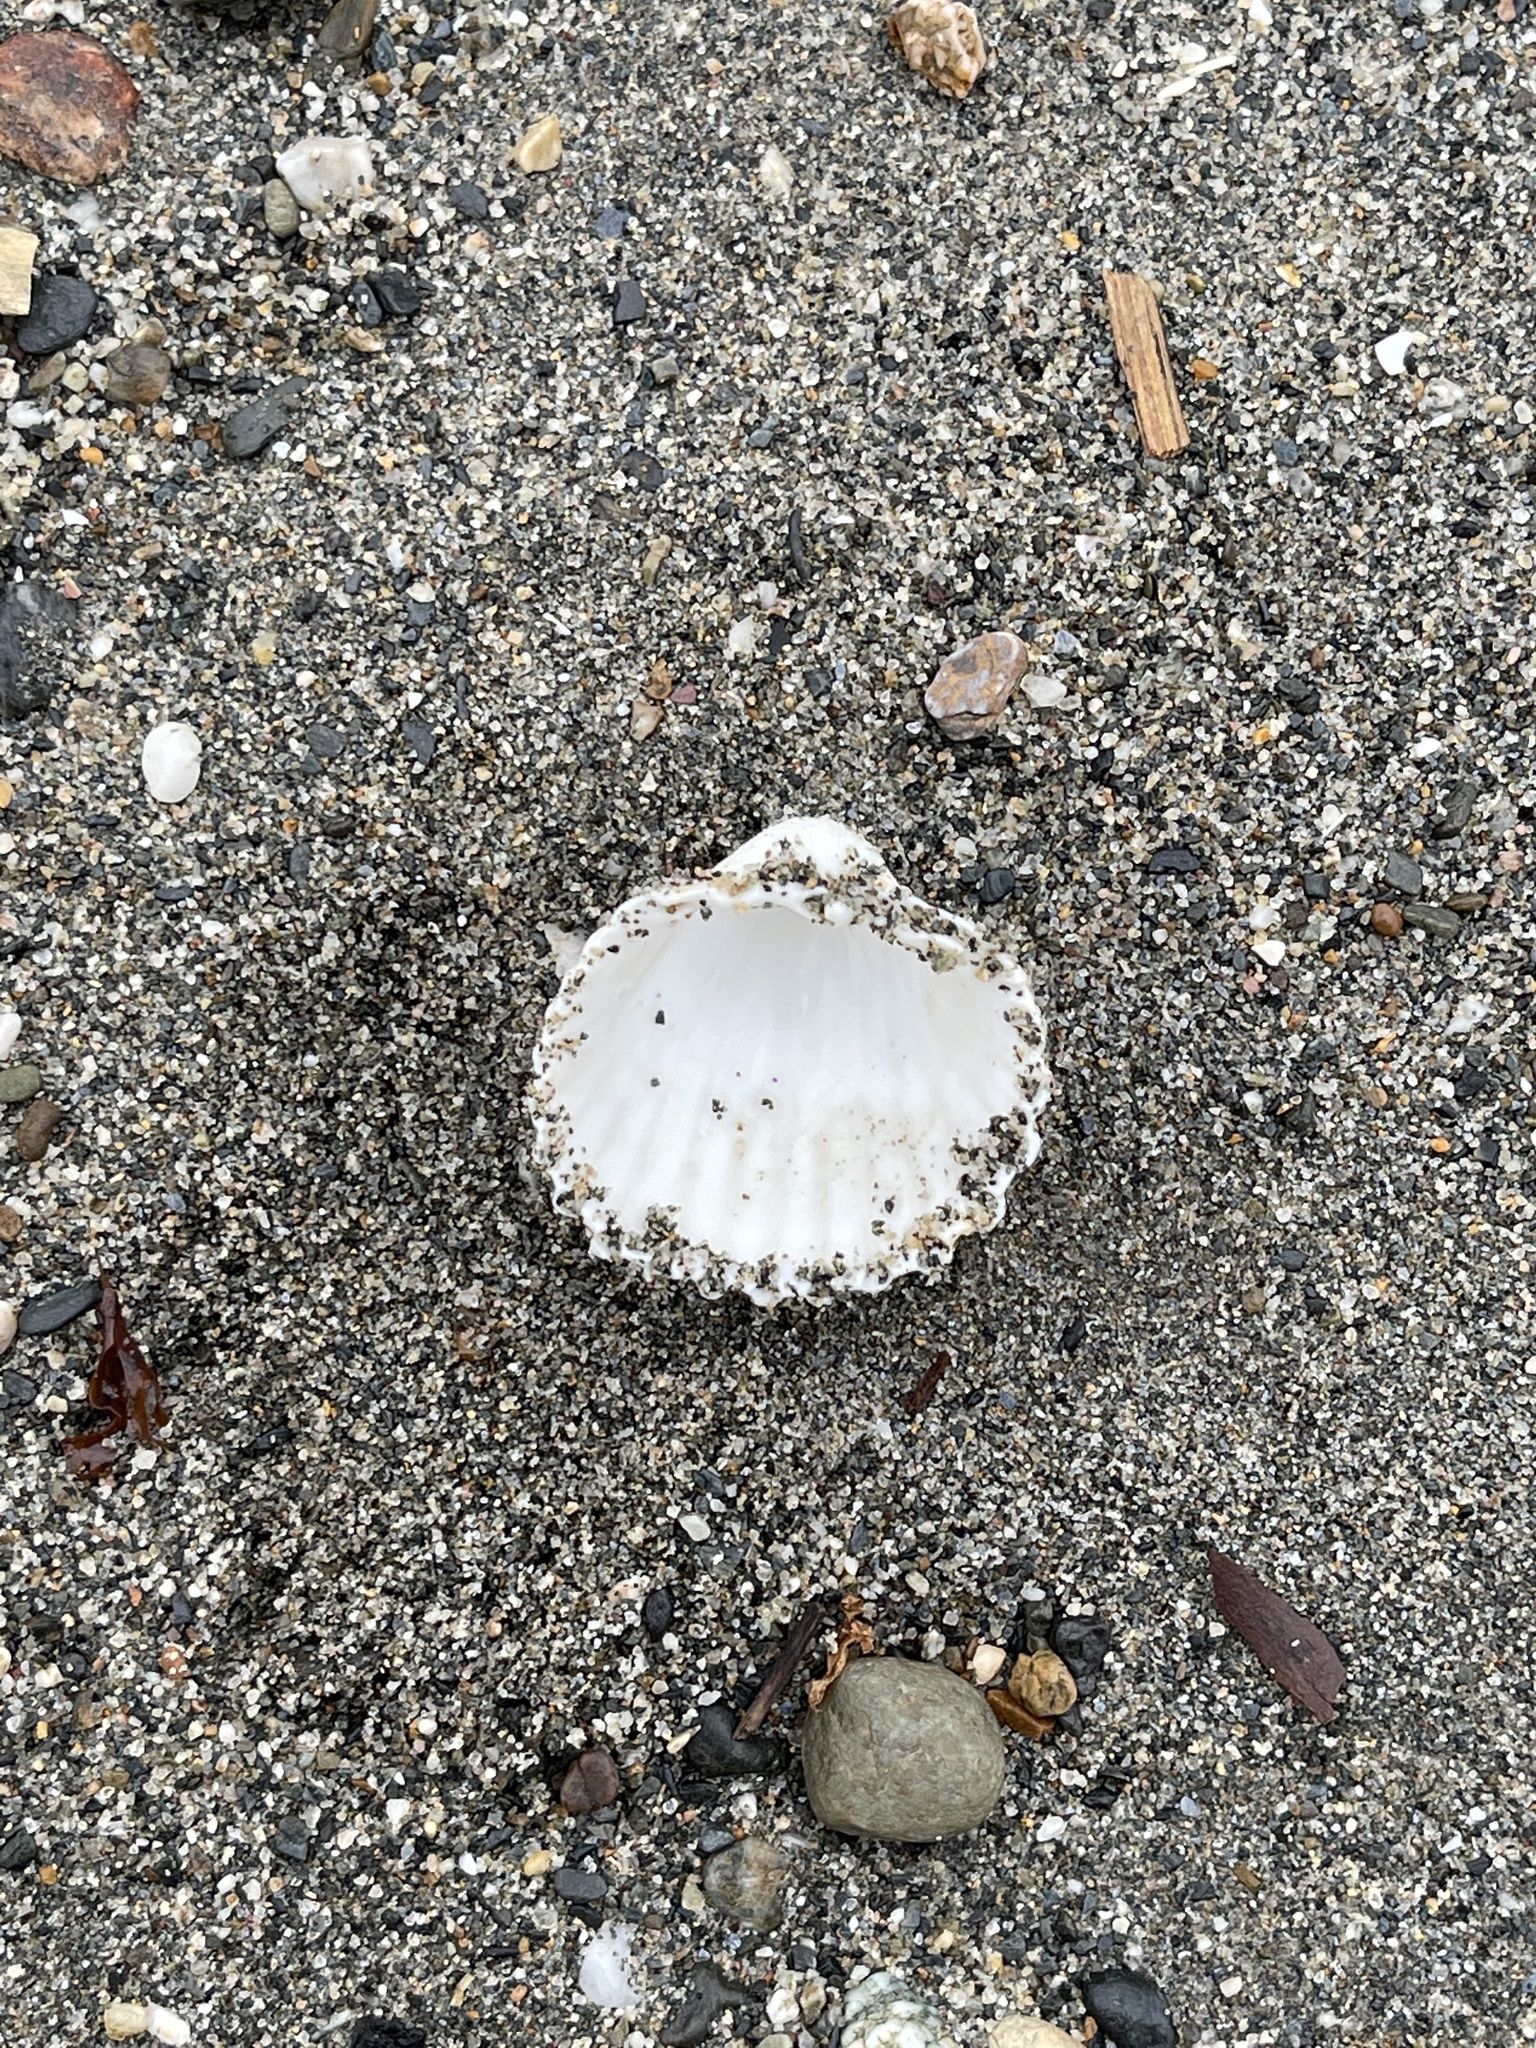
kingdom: Animalia
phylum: Mollusca
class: Bivalvia
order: Cardiida
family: Cardiidae
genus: Acanthocardia
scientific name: Acanthocardia tuberculata
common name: Rough cockle
